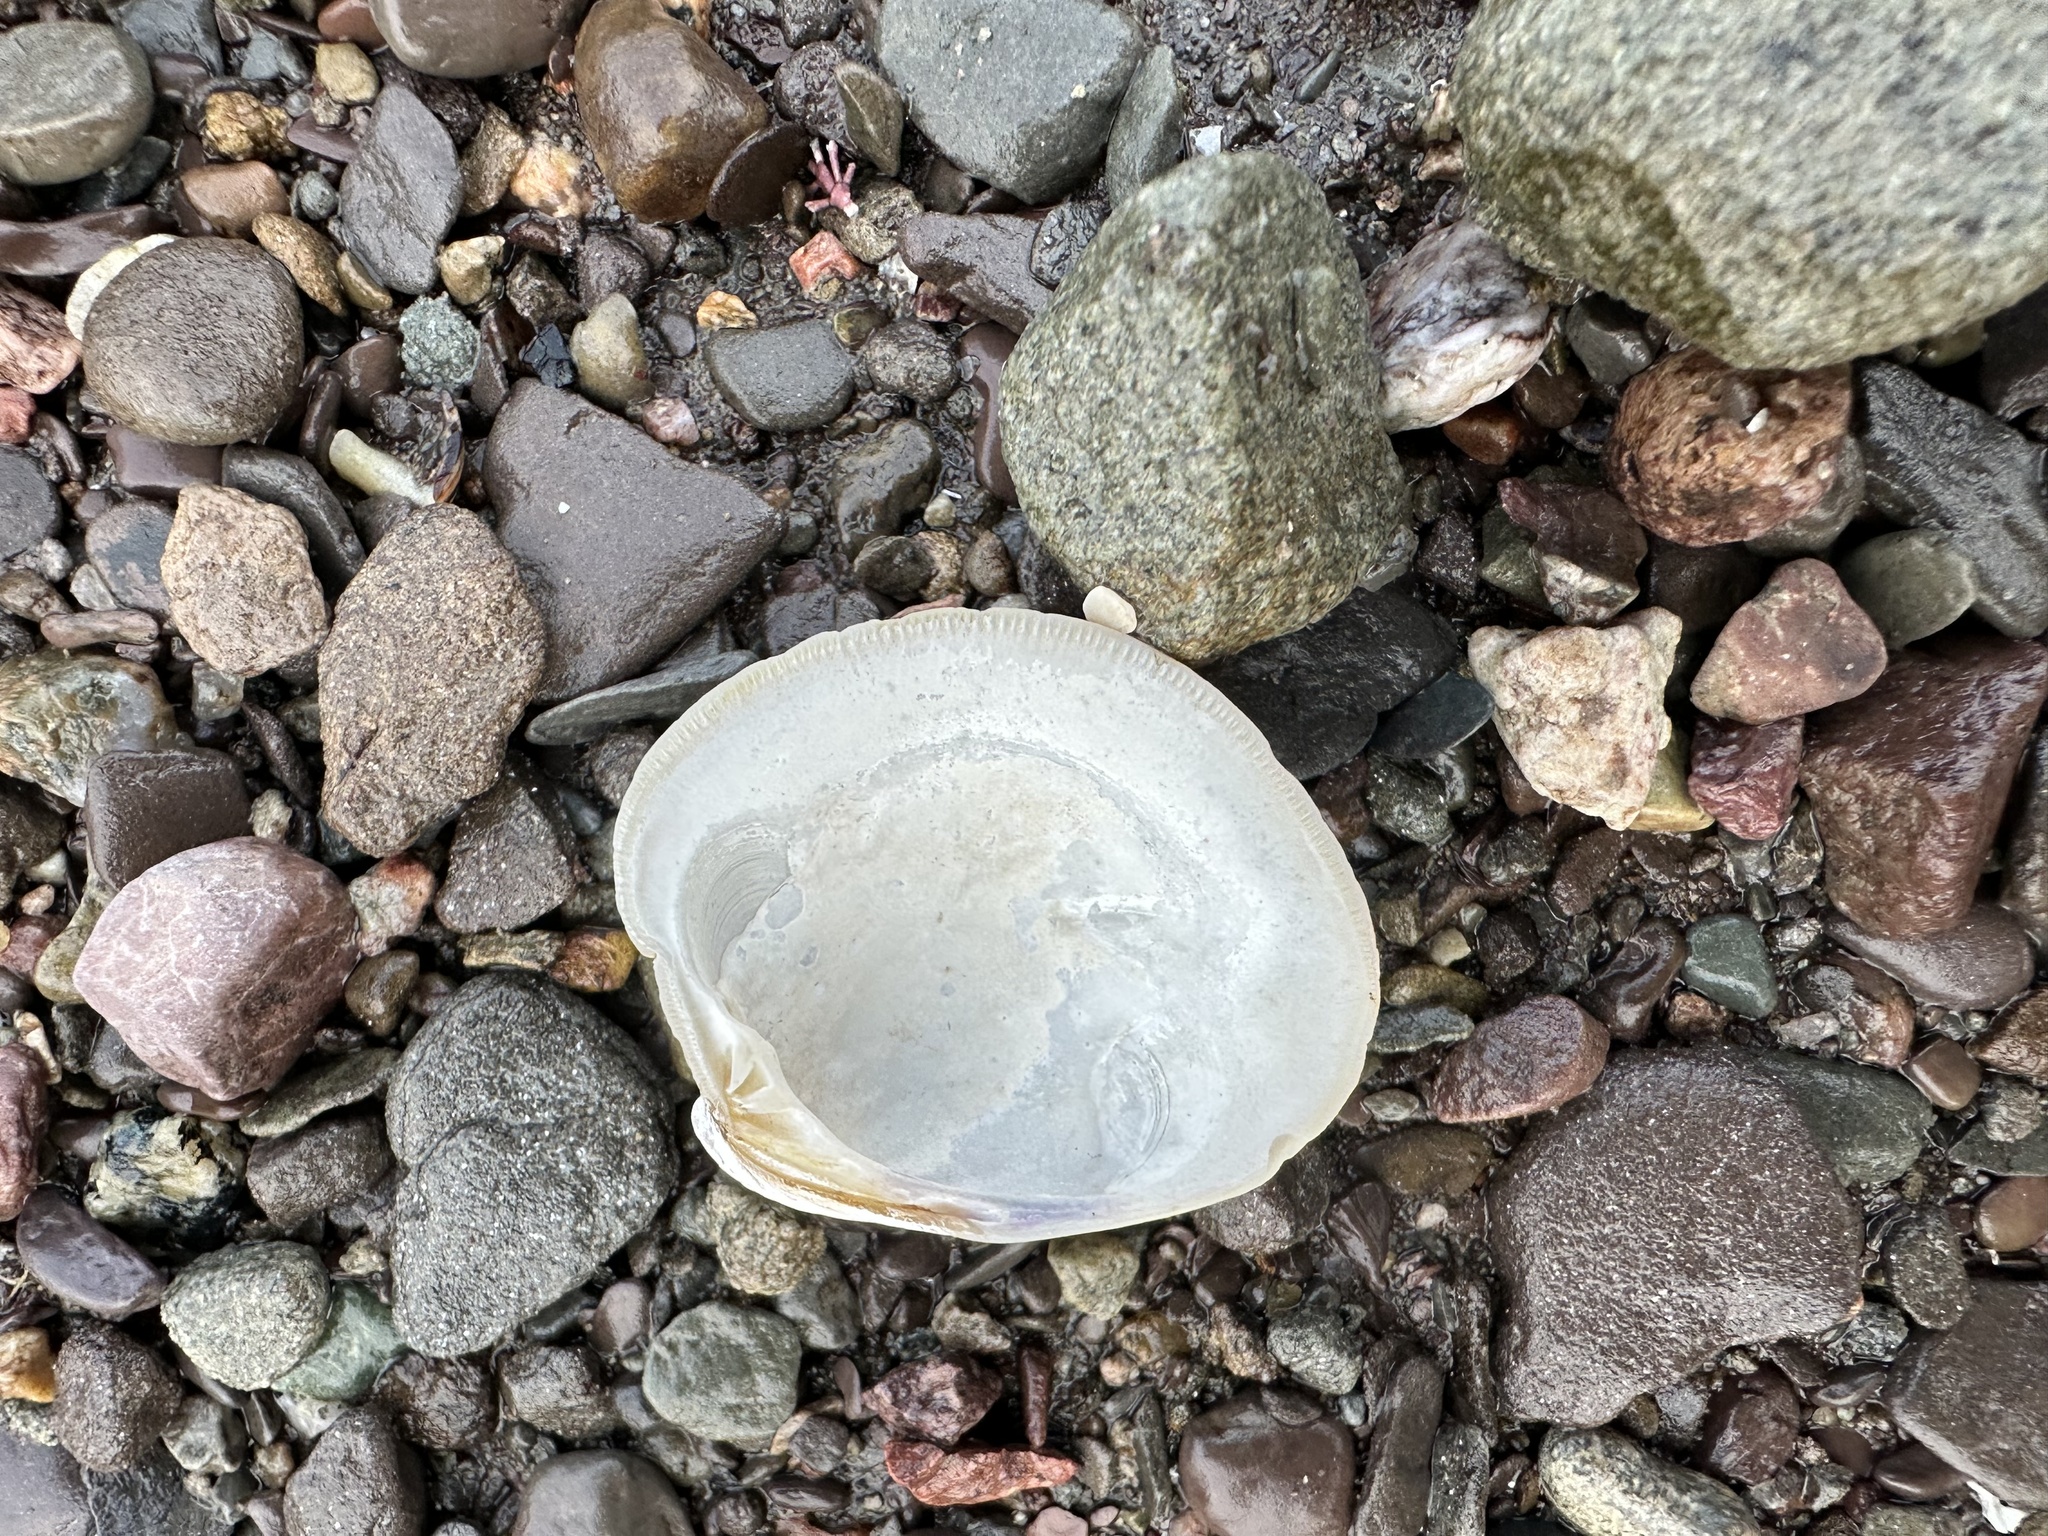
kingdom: Animalia
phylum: Mollusca
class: Bivalvia
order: Venerida
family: Veneridae
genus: Mercenaria
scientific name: Mercenaria mercenaria
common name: American hard-shelled clam
